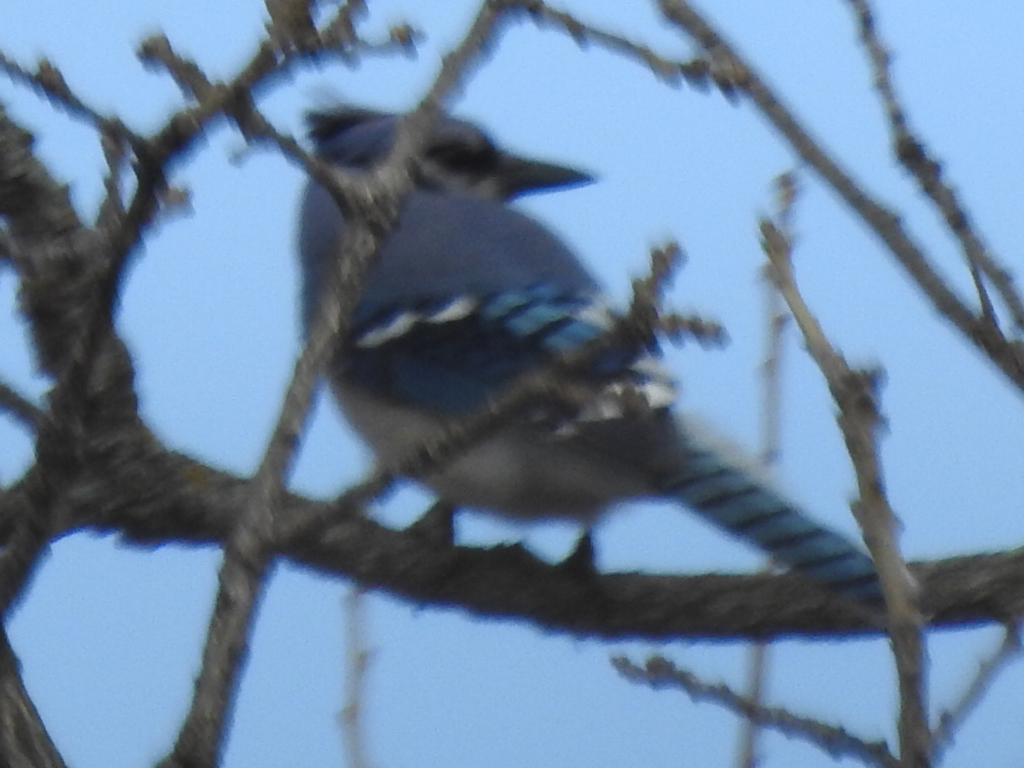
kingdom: Animalia
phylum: Chordata
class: Aves
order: Passeriformes
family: Corvidae
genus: Cyanocitta
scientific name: Cyanocitta cristata
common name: Blue jay
